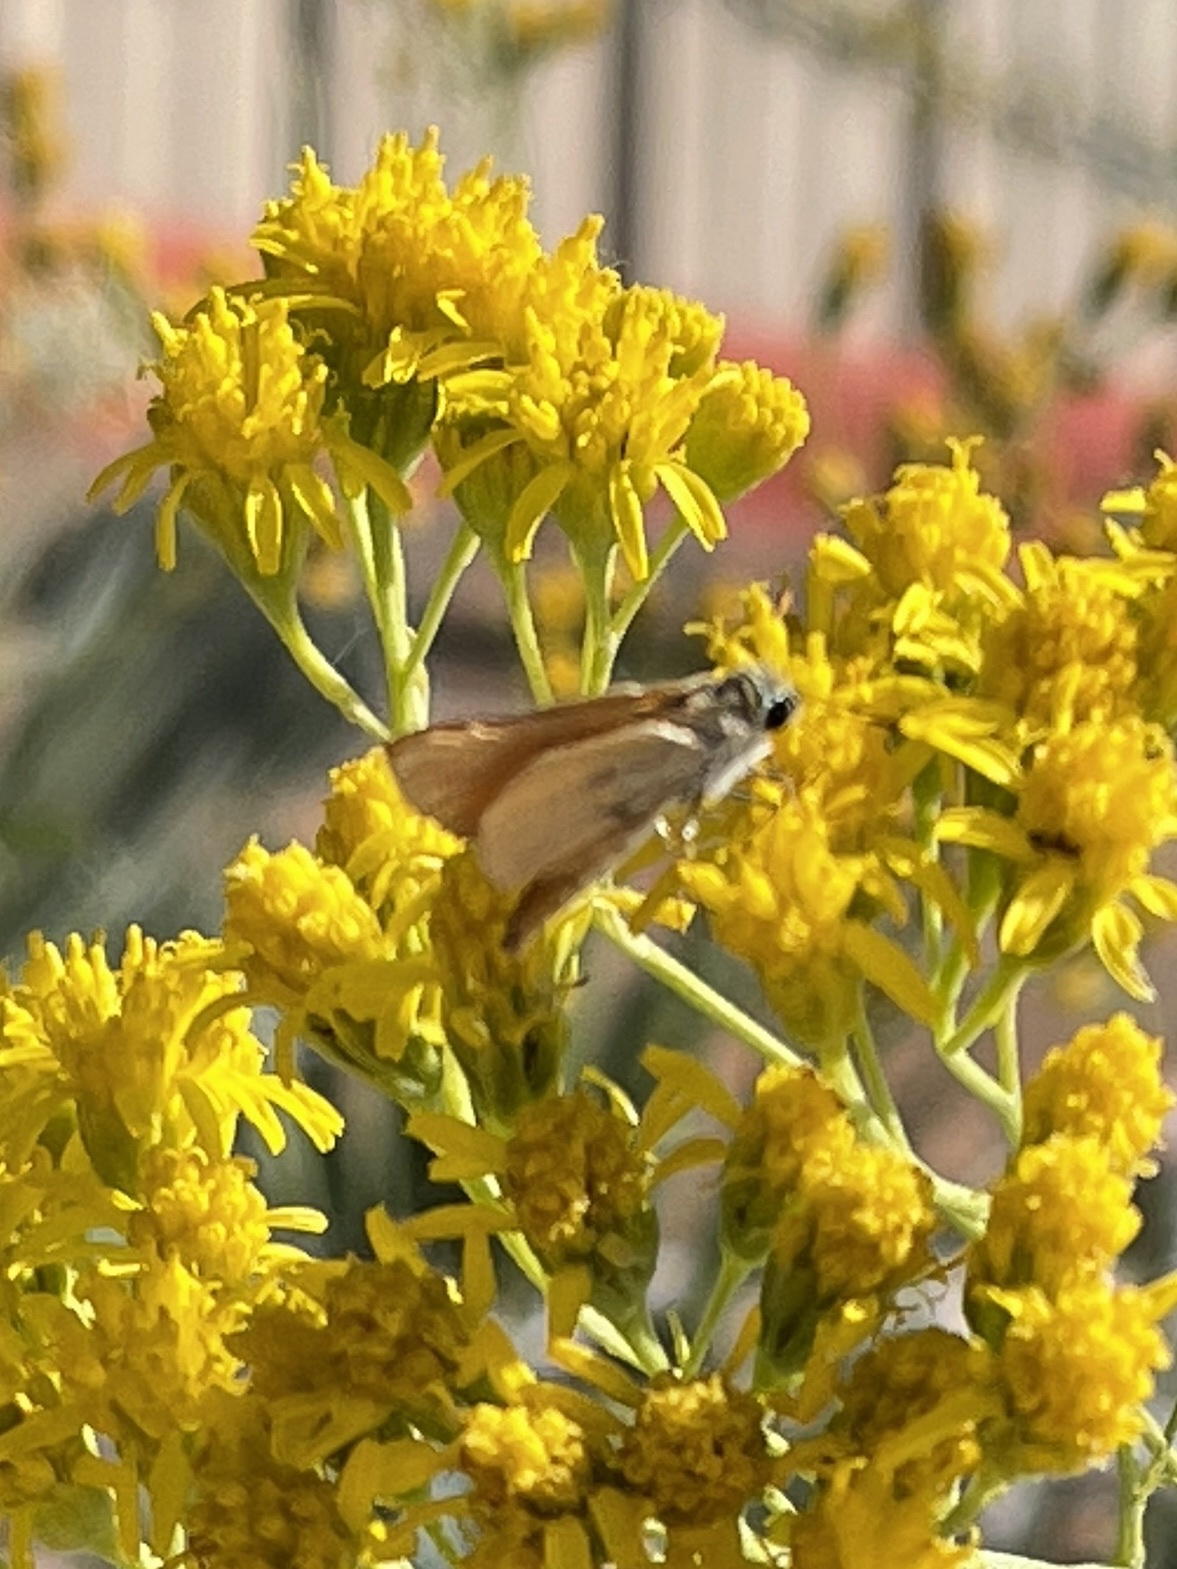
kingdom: Animalia
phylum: Arthropoda
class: Insecta
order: Lepidoptera
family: Hesperiidae
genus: Copaeodes
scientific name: Copaeodes aurantiaca
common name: Orange skipperling
